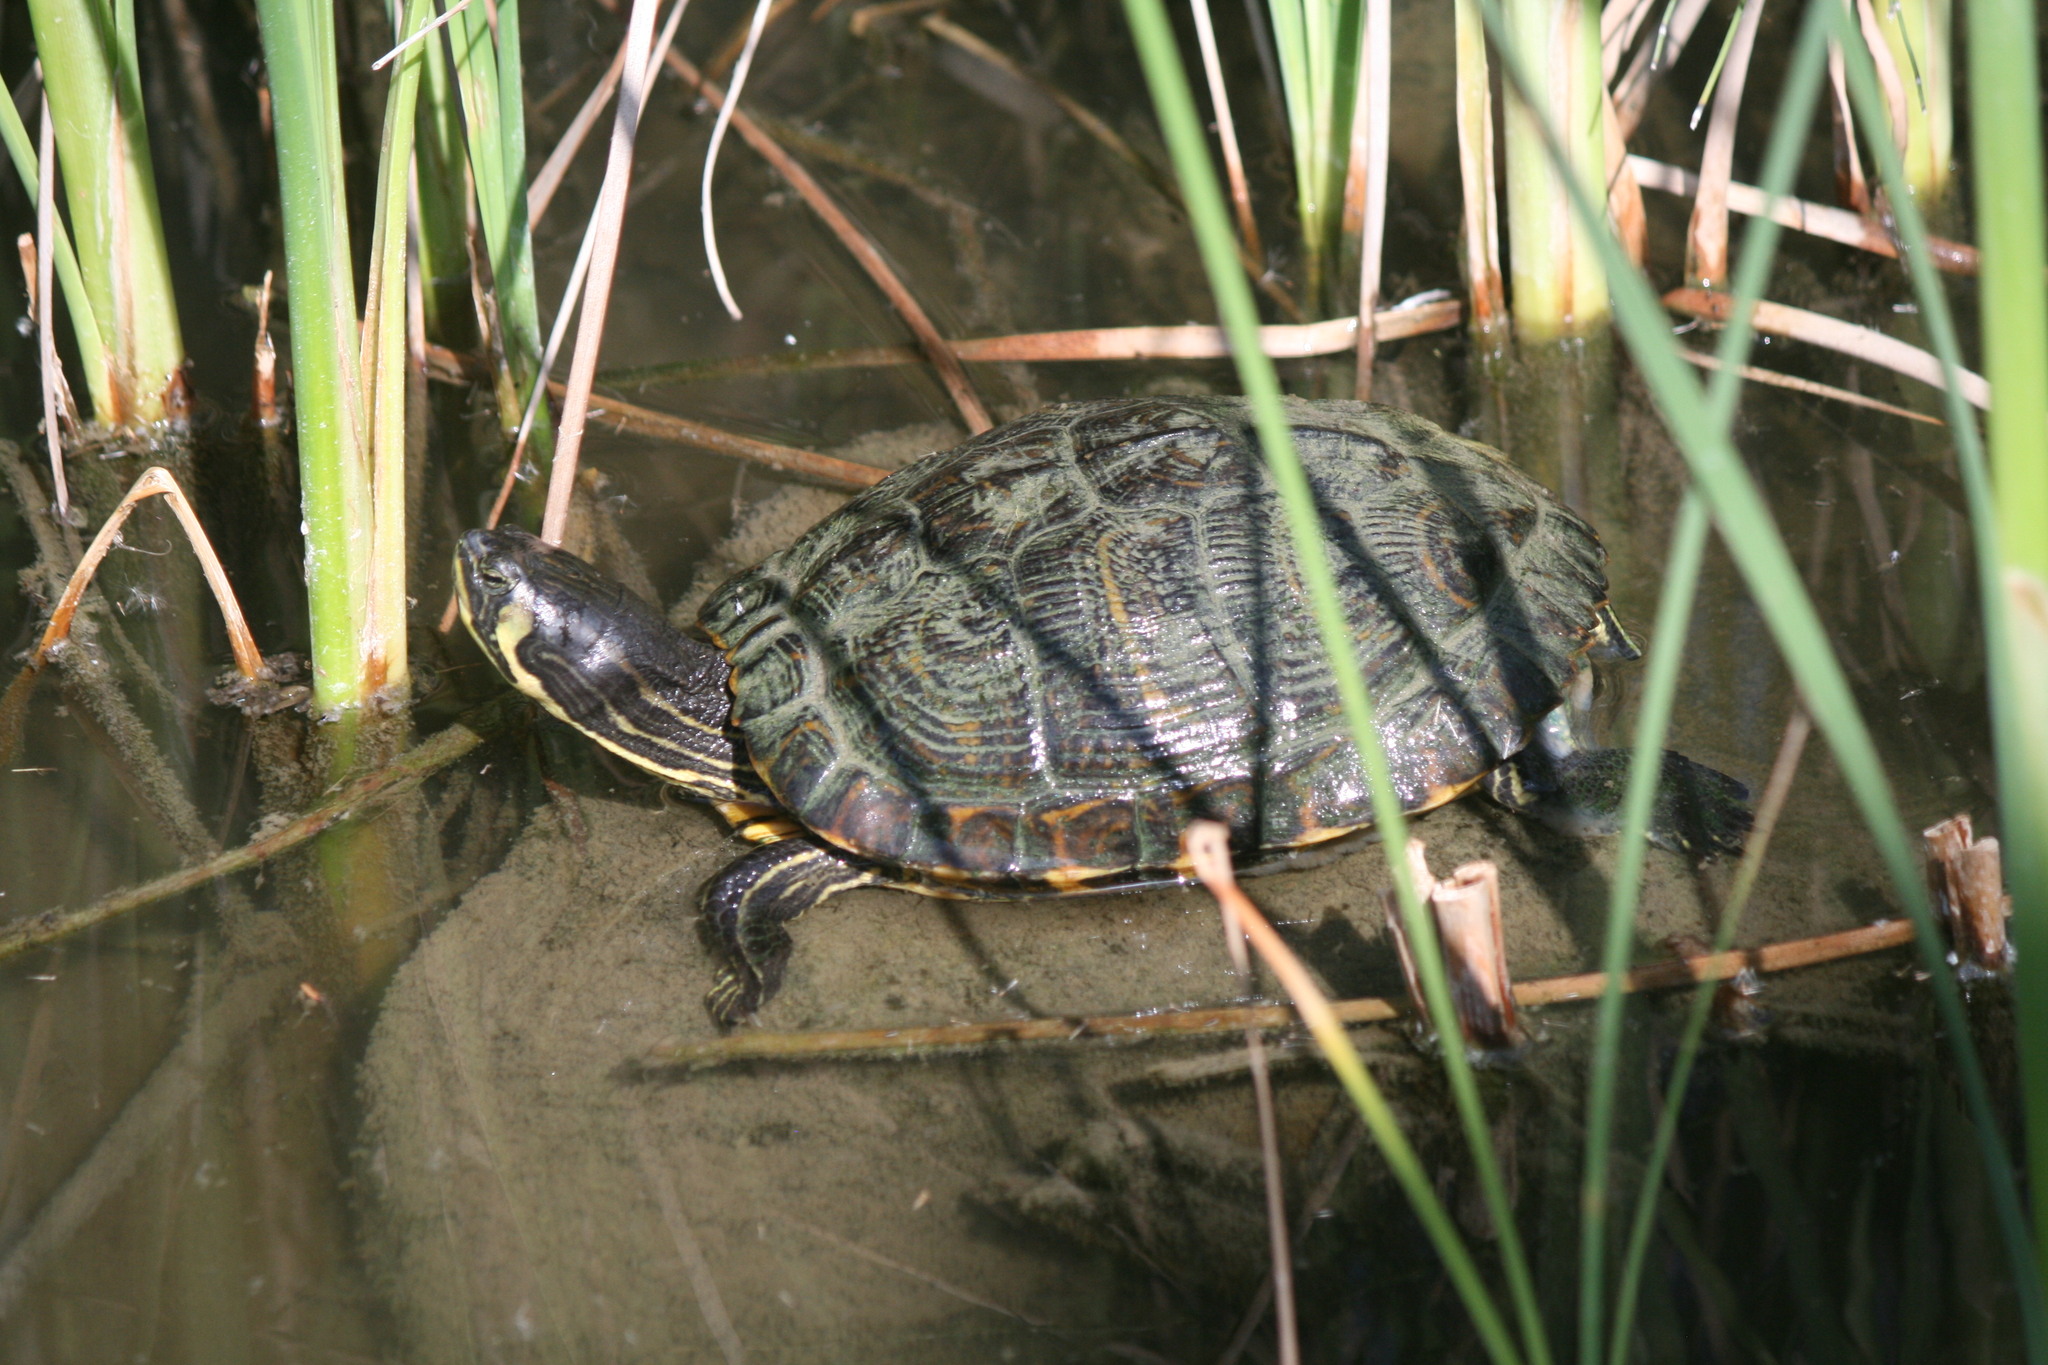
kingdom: Animalia
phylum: Chordata
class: Testudines
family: Emydidae
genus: Trachemys
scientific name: Trachemys scripta
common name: Slider
